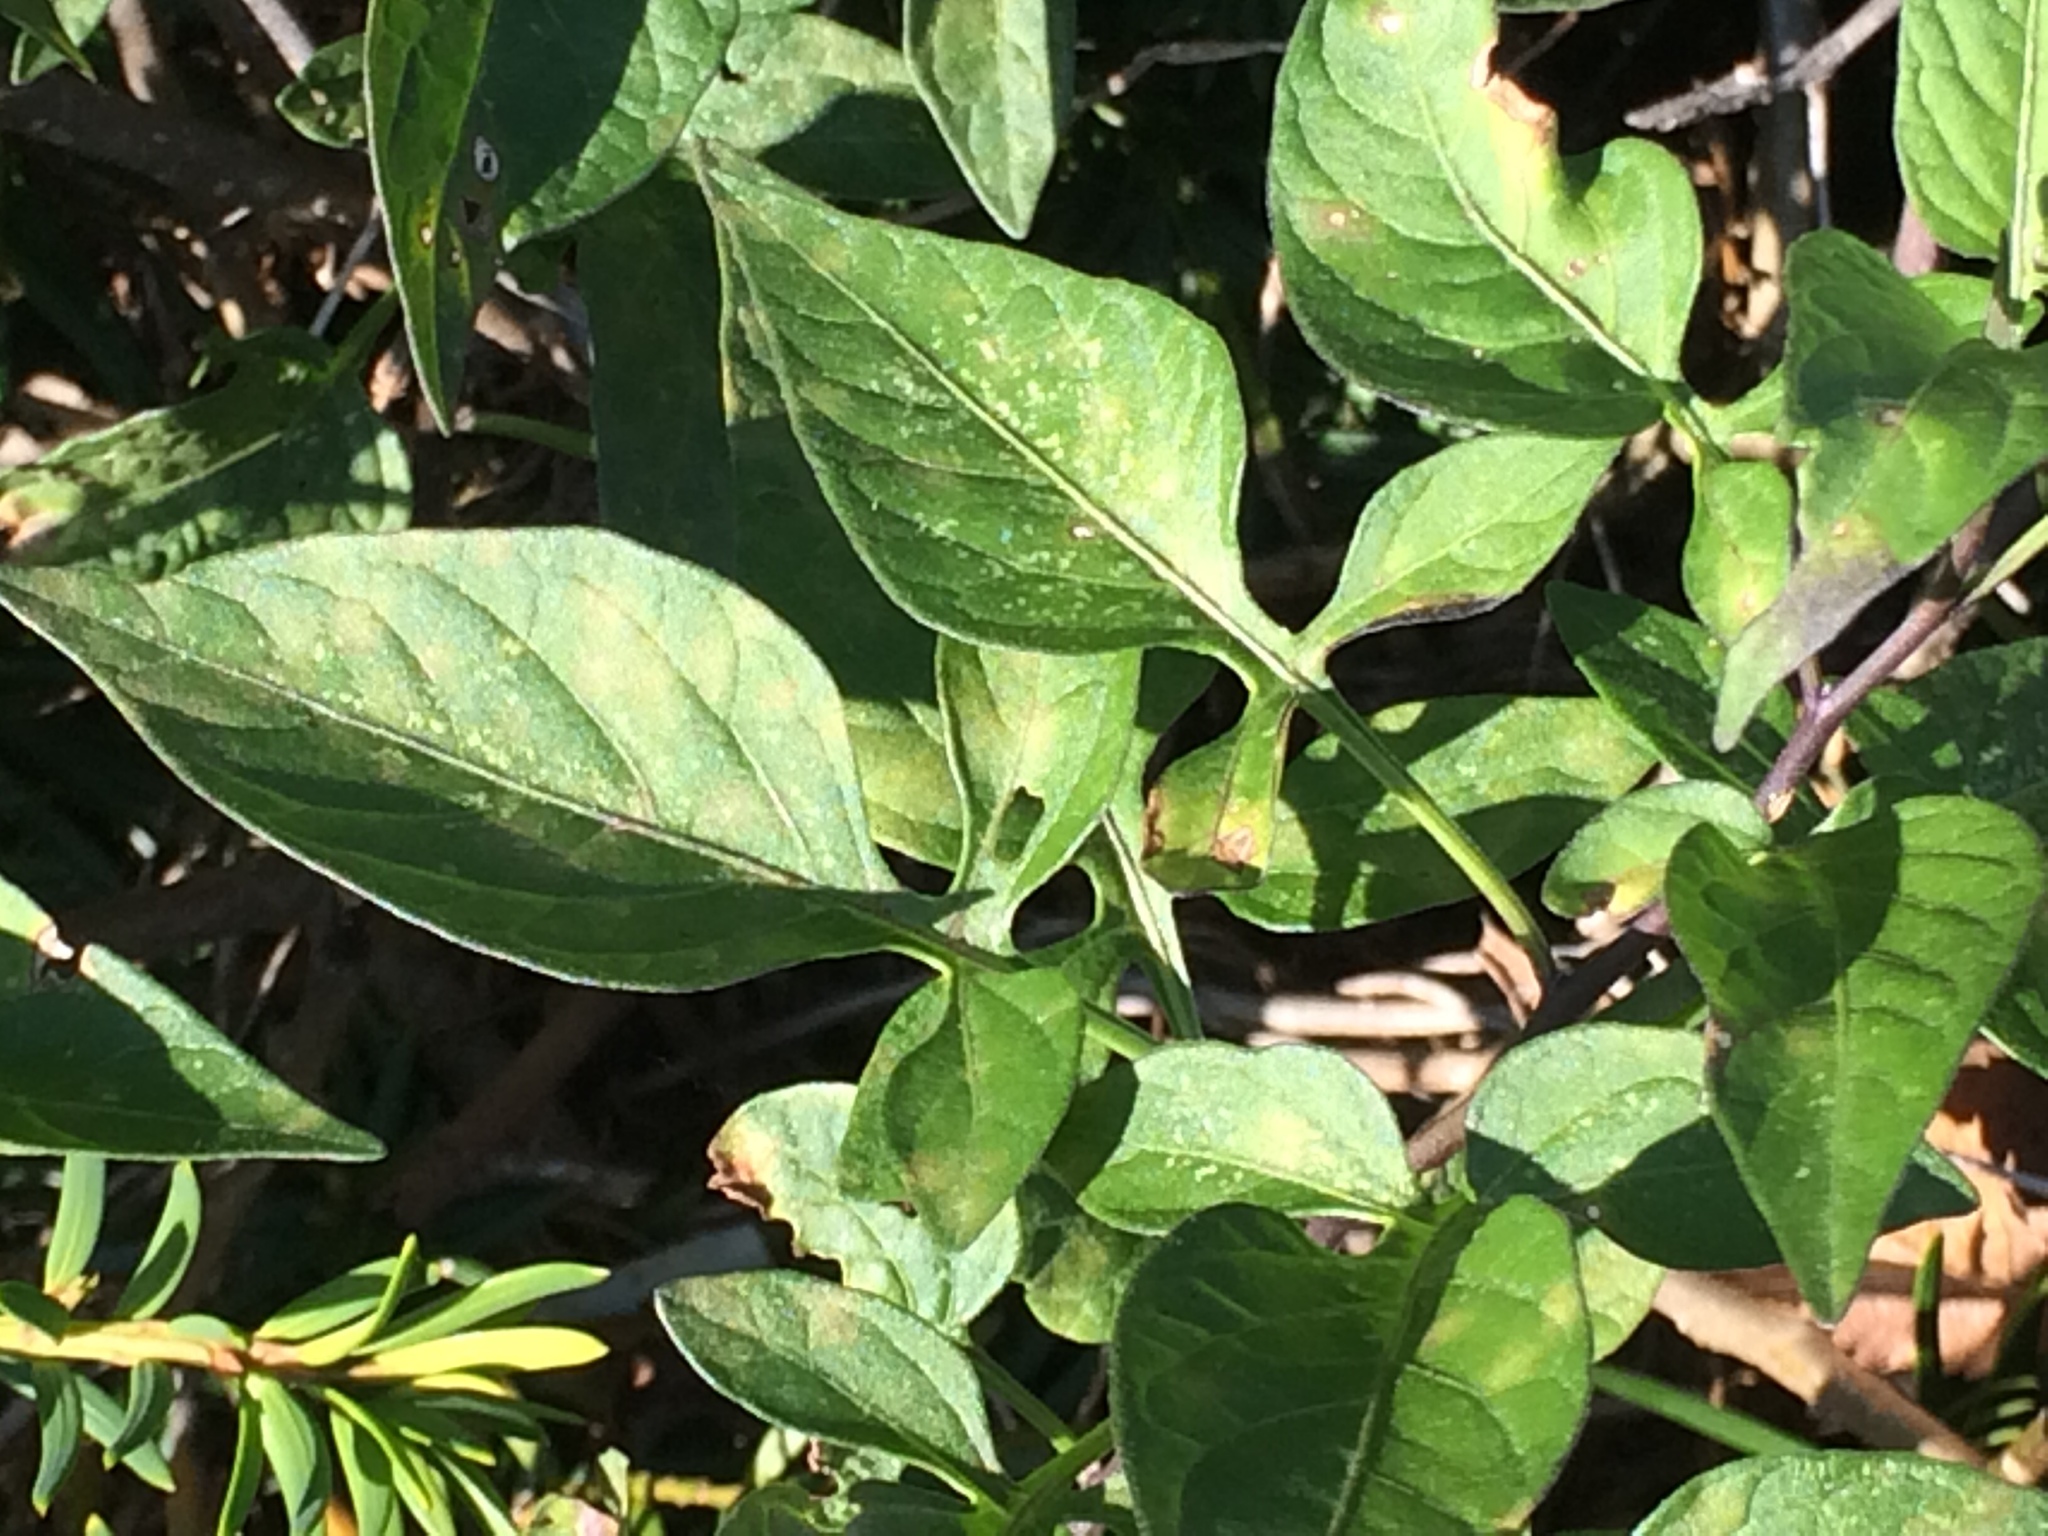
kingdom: Plantae
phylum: Tracheophyta
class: Magnoliopsida
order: Solanales
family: Solanaceae
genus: Solanum
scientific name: Solanum dulcamara
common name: Climbing nightshade
